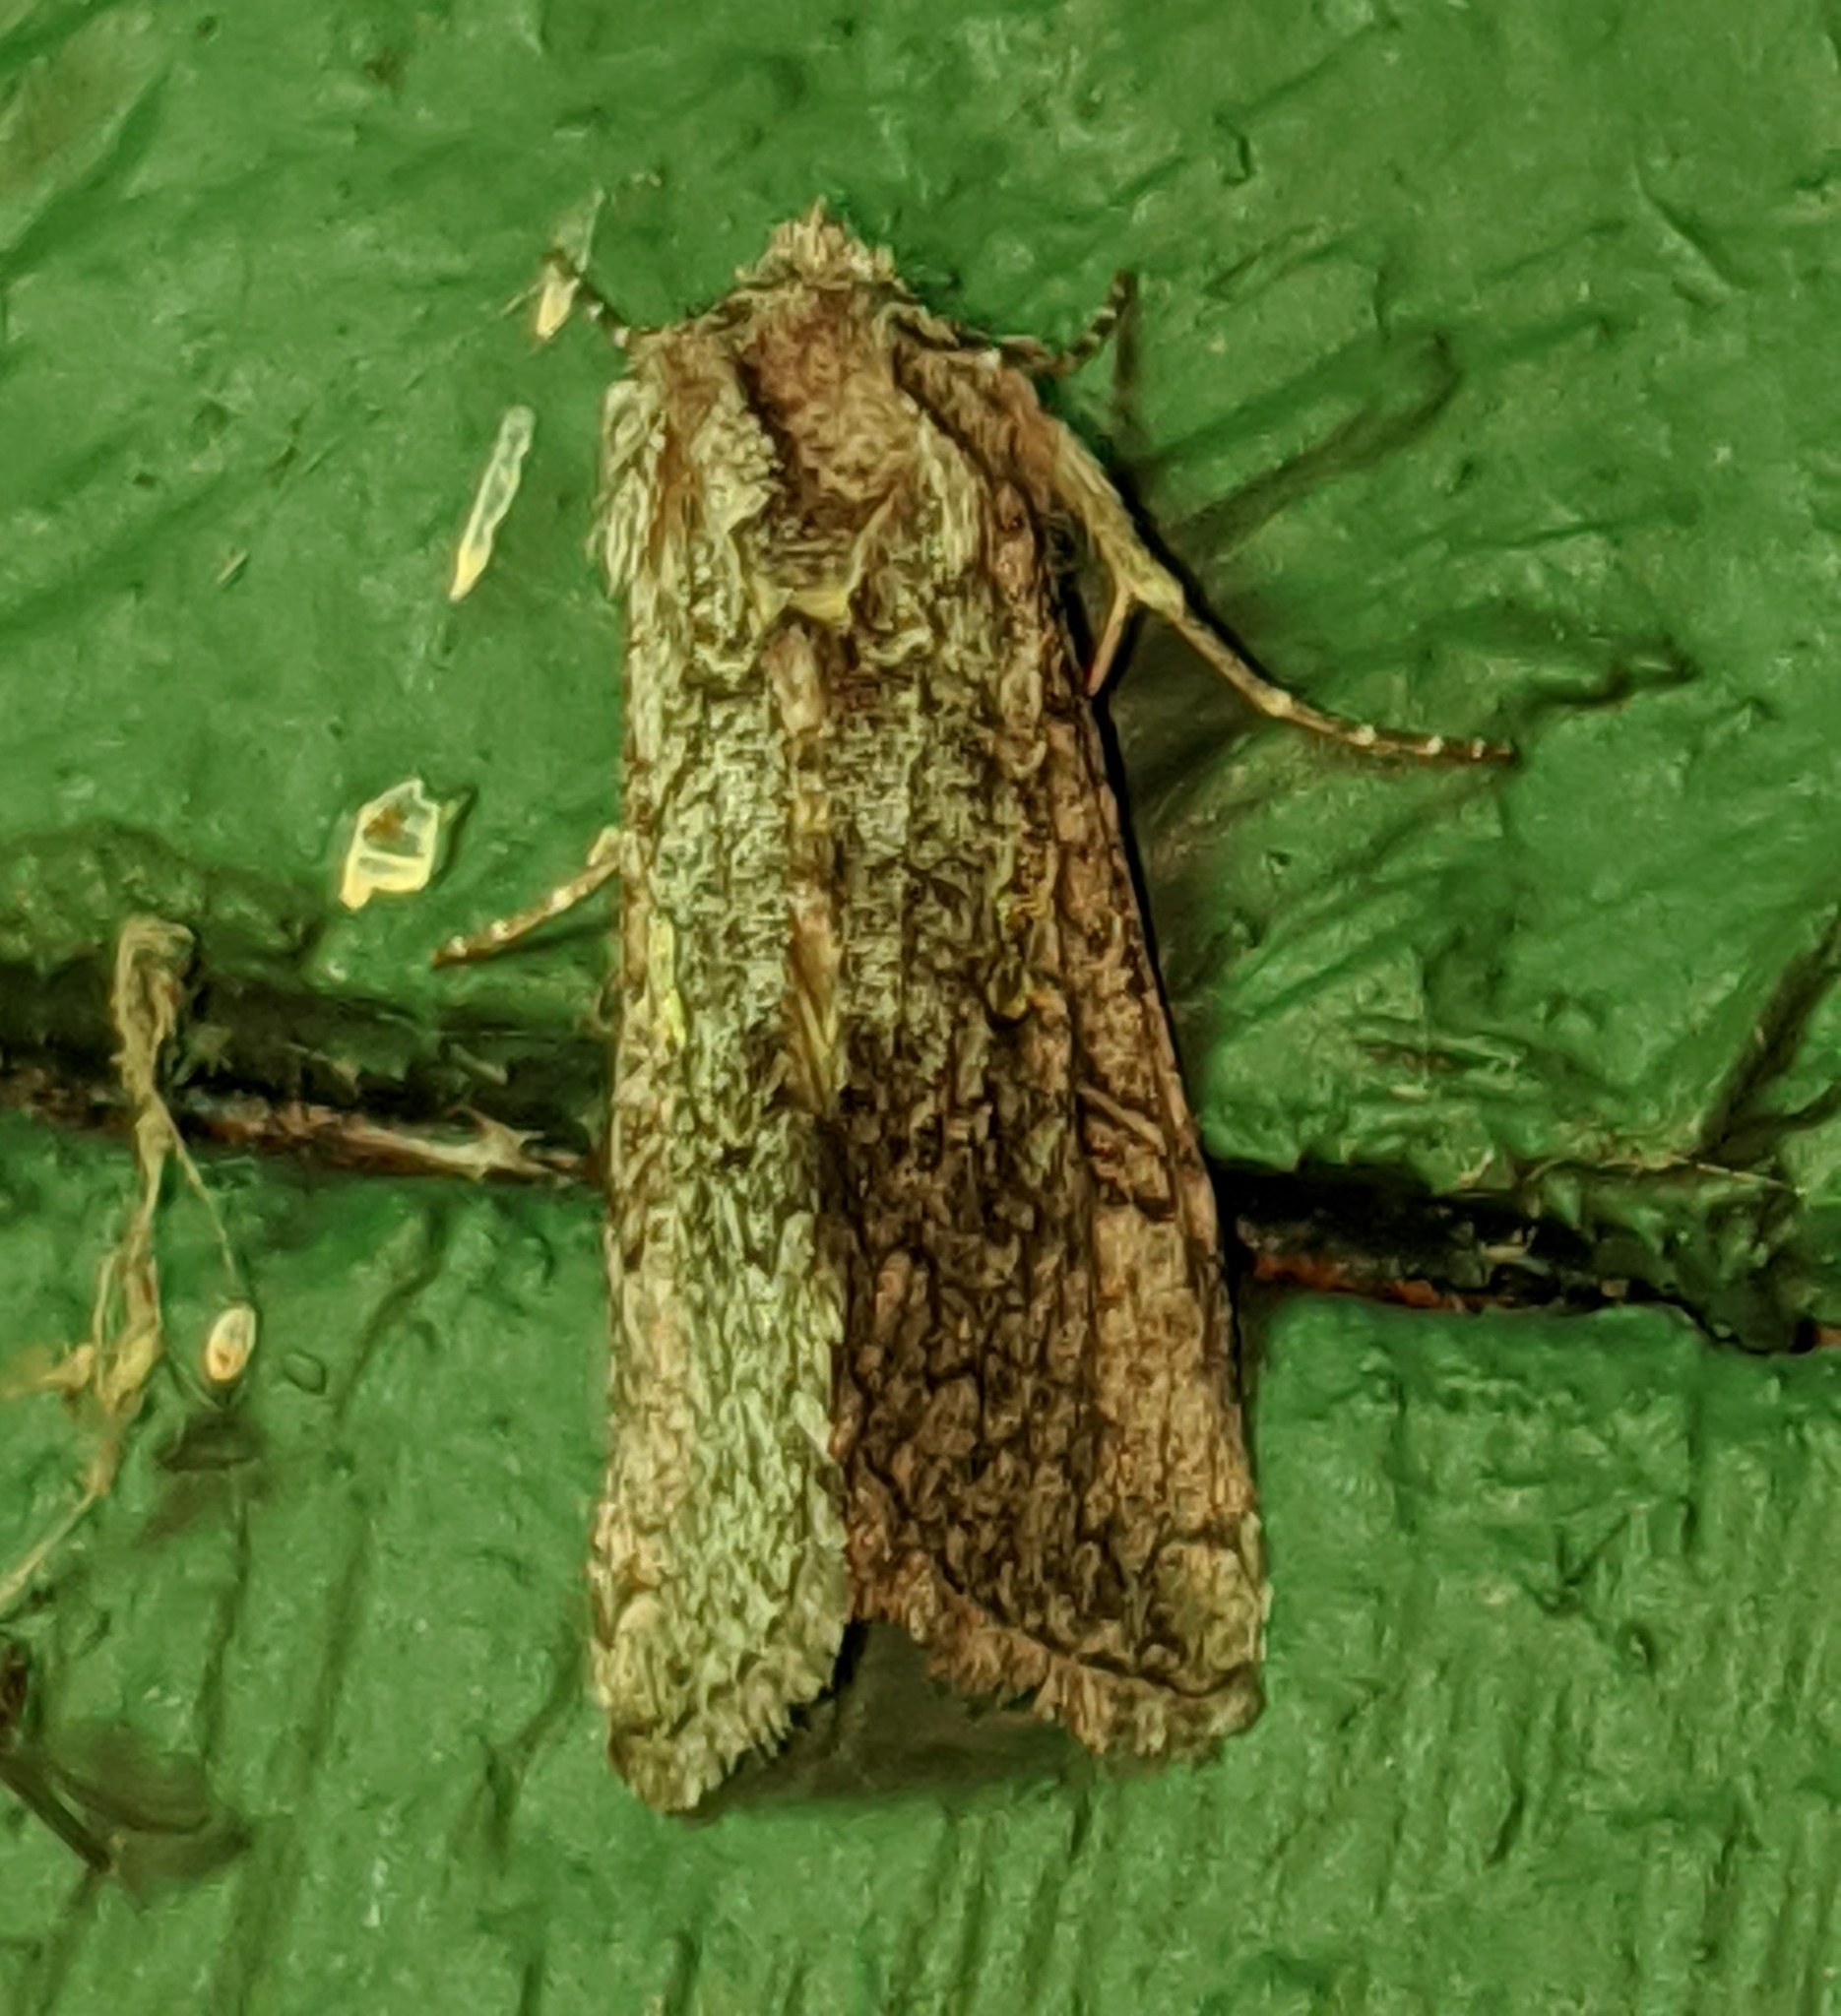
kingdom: Animalia
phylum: Arthropoda
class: Insecta
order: Lepidoptera
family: Noctuidae
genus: Syngrapha
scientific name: Syngrapha viridisigma
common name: Spruce false looper moth
